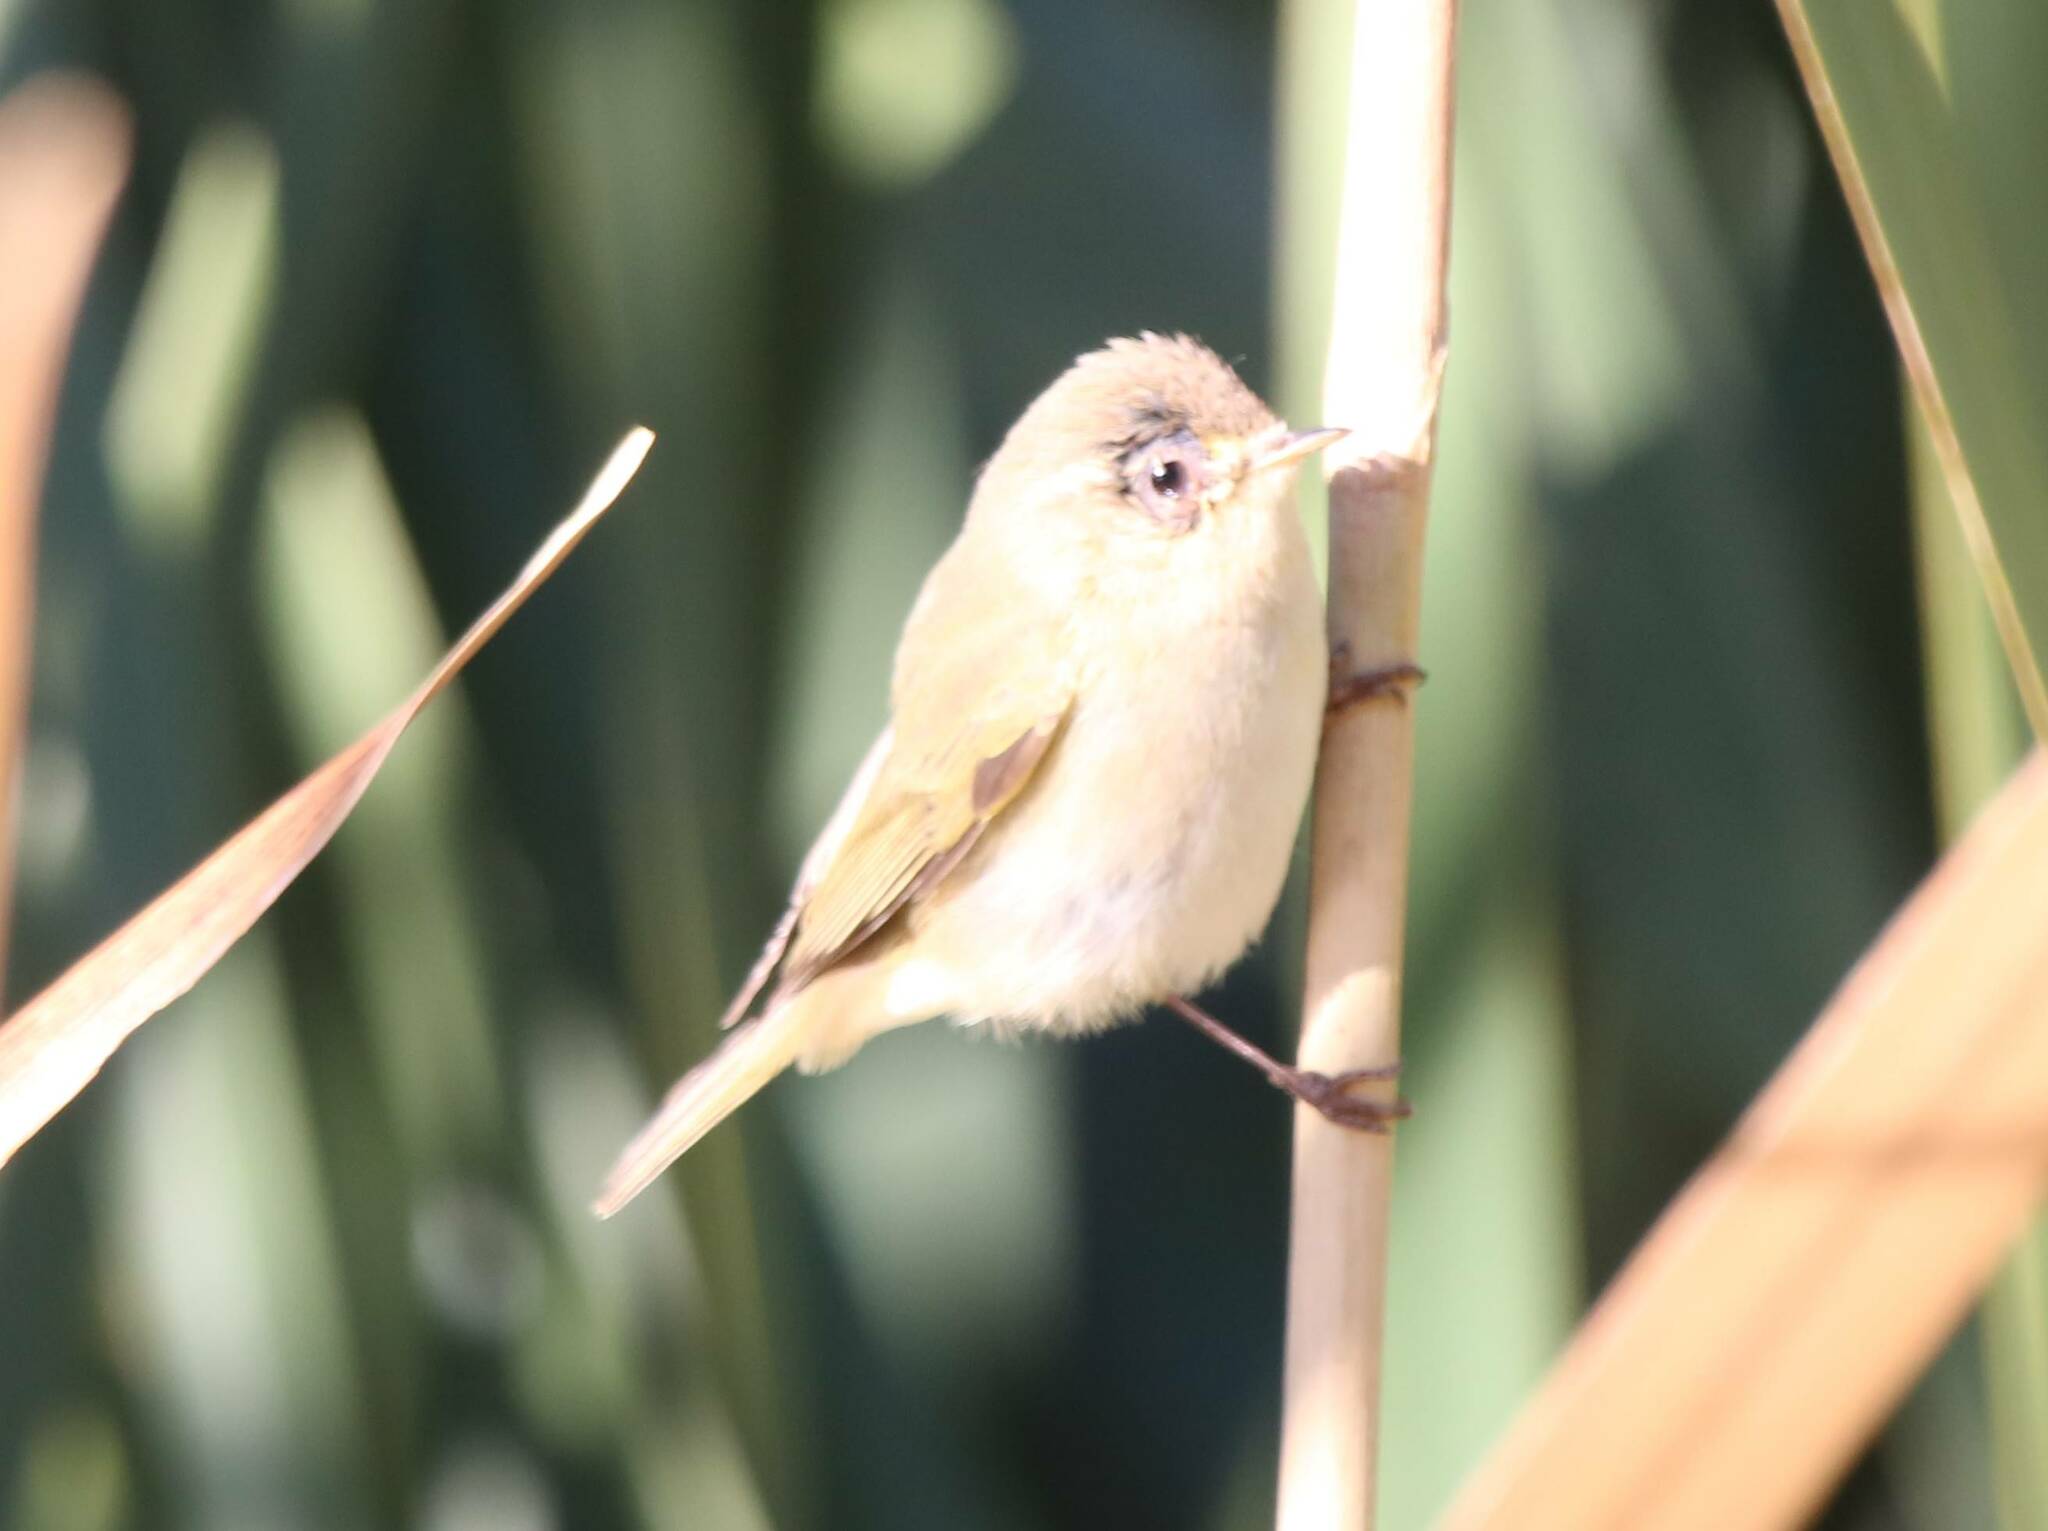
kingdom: Animalia
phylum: Chordata
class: Aves
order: Passeriformes
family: Phylloscopidae
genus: Phylloscopus
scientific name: Phylloscopus collybita
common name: Common chiffchaff
